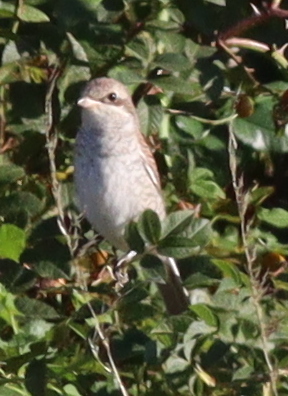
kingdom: Animalia
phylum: Chordata
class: Aves
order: Passeriformes
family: Laniidae
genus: Lanius
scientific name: Lanius collurio
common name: Red-backed shrike
